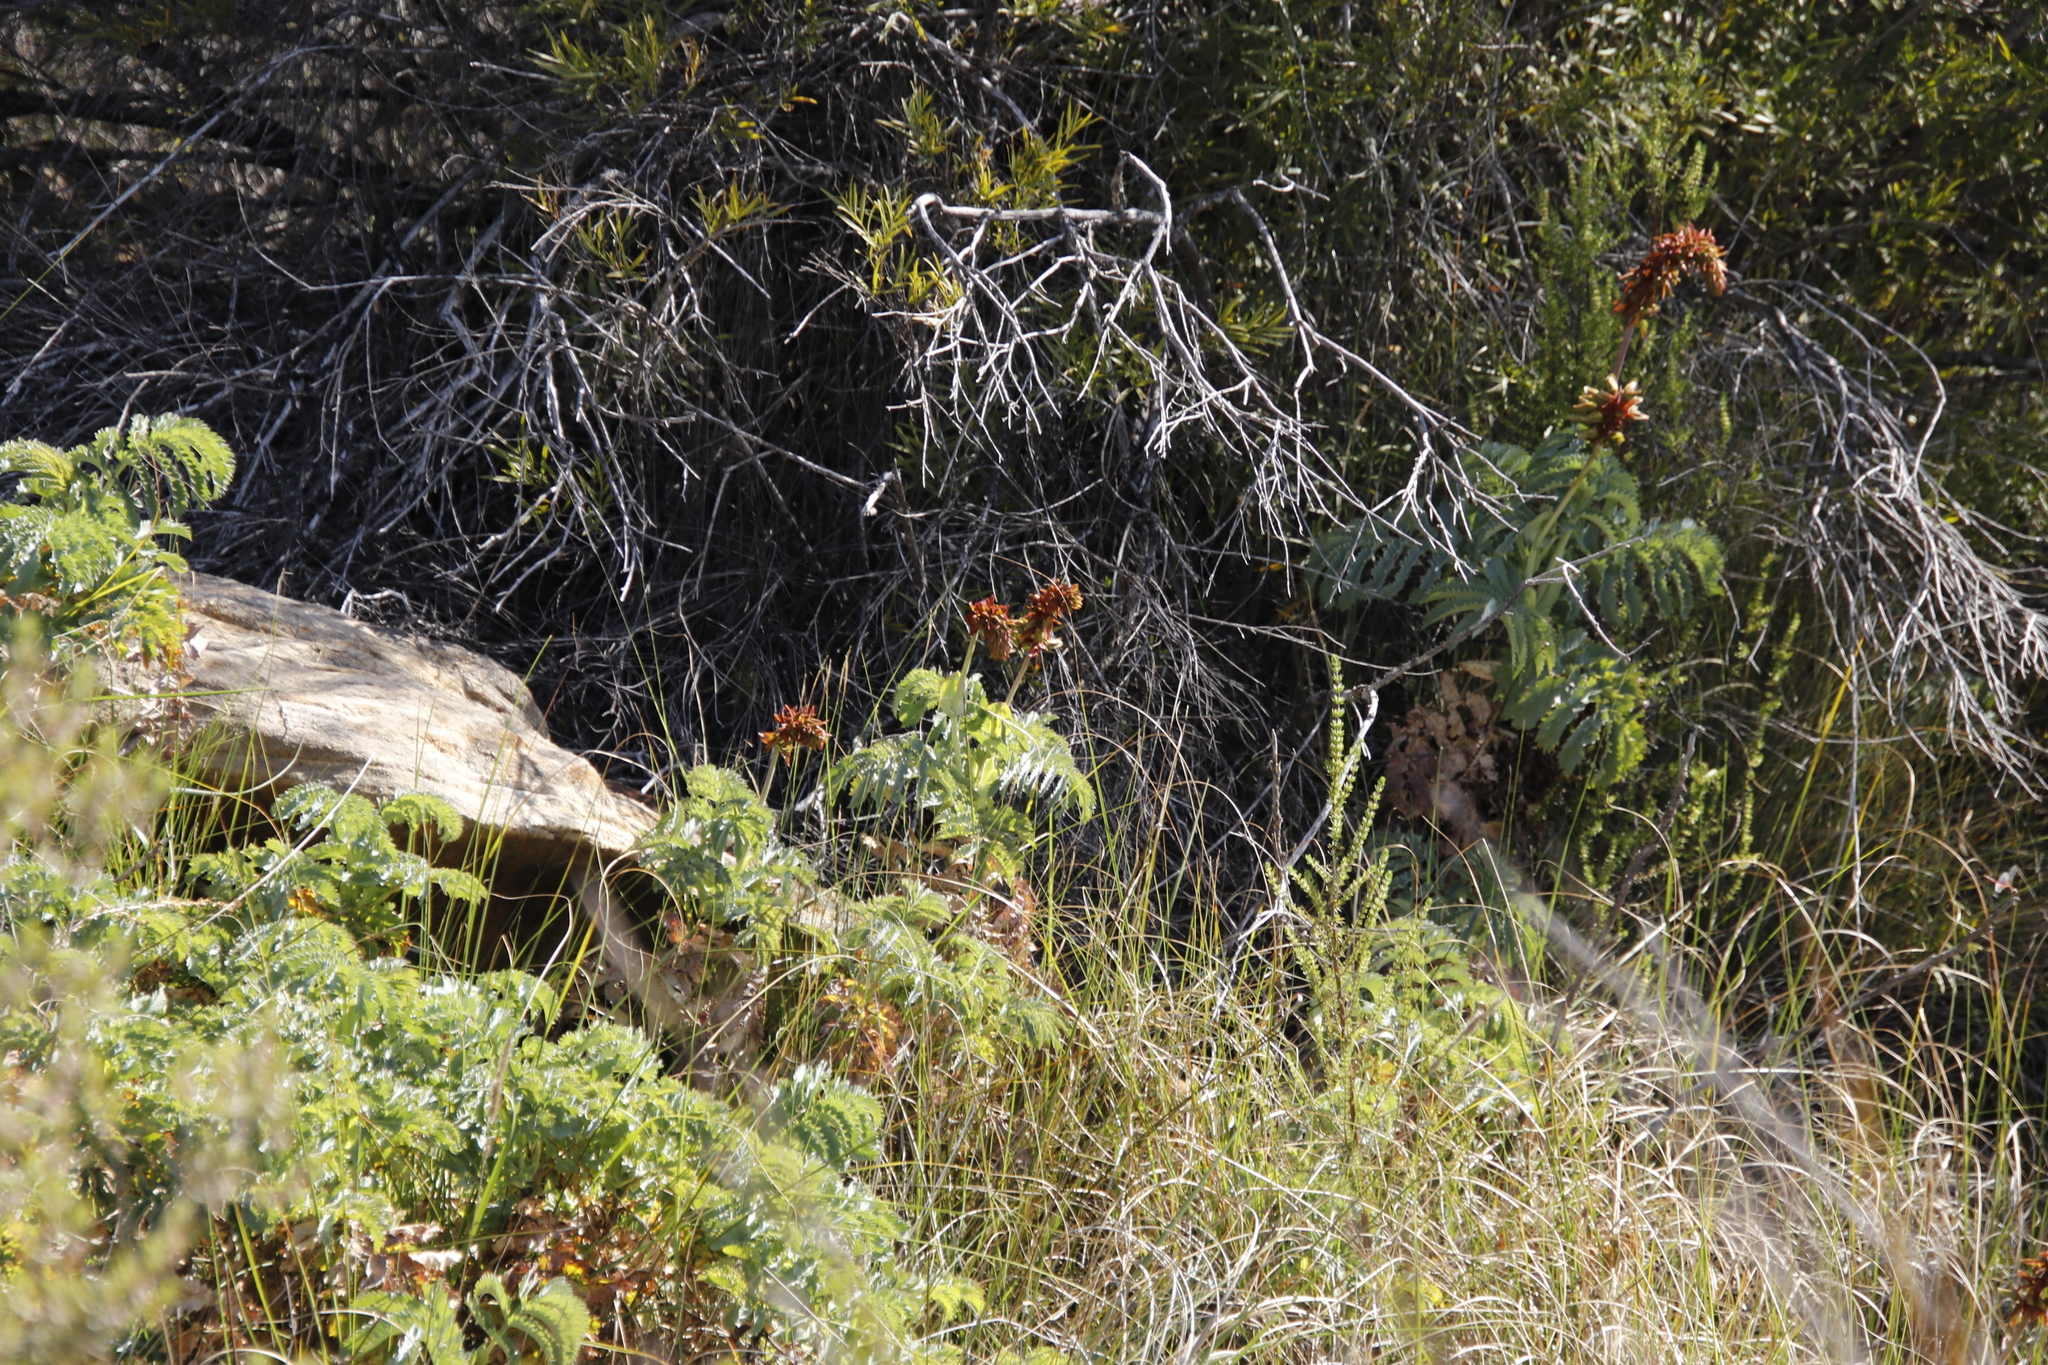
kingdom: Plantae
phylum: Tracheophyta
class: Magnoliopsida
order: Geraniales
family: Melianthaceae
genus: Melianthus
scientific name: Melianthus major
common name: Honey-flower
